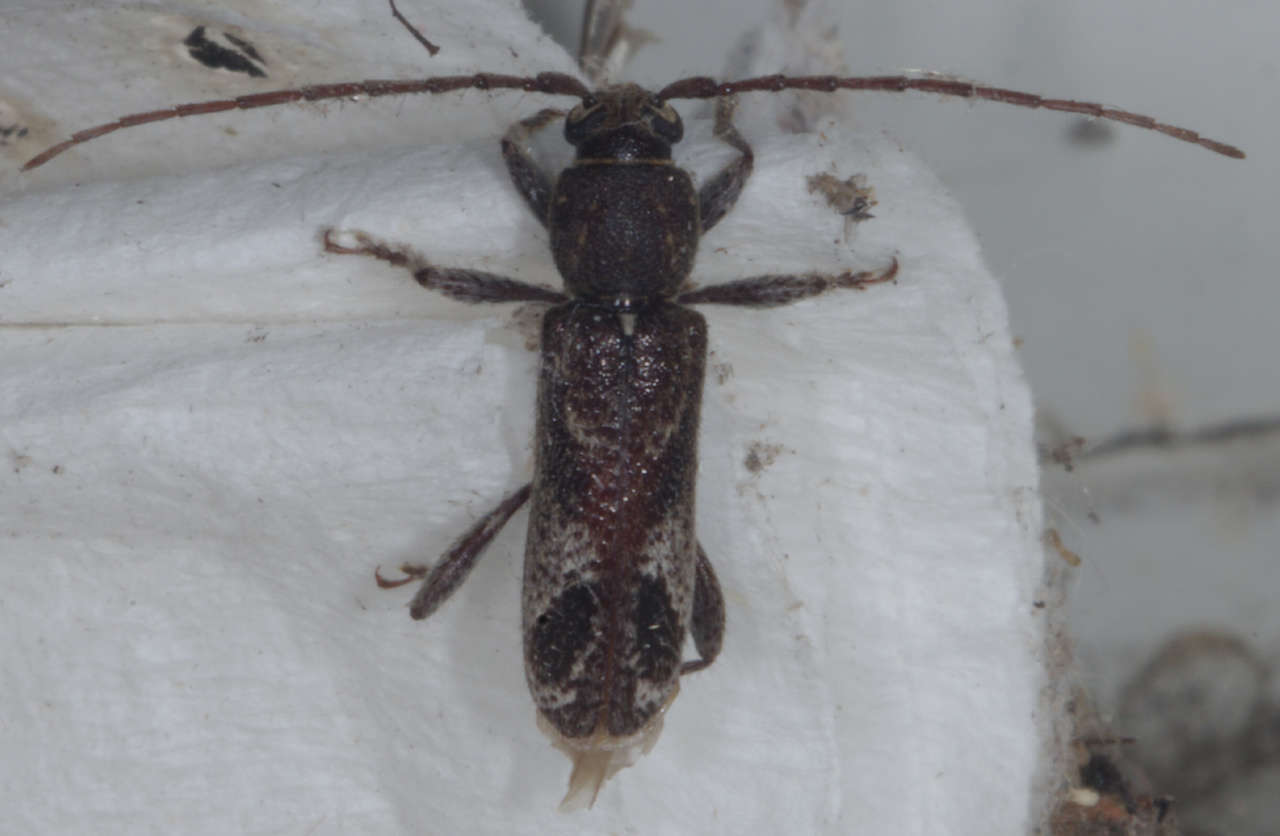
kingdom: Animalia
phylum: Arthropoda
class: Insecta
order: Coleoptera
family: Cerambycidae
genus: Phacodes
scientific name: Phacodes personatus
